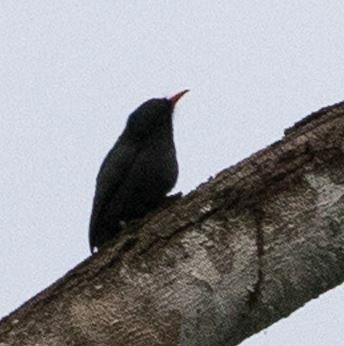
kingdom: Animalia
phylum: Chordata
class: Aves
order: Piciformes
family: Bucconidae
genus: Monasa
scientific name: Monasa nigrifrons
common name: Black-fronted nunbird
